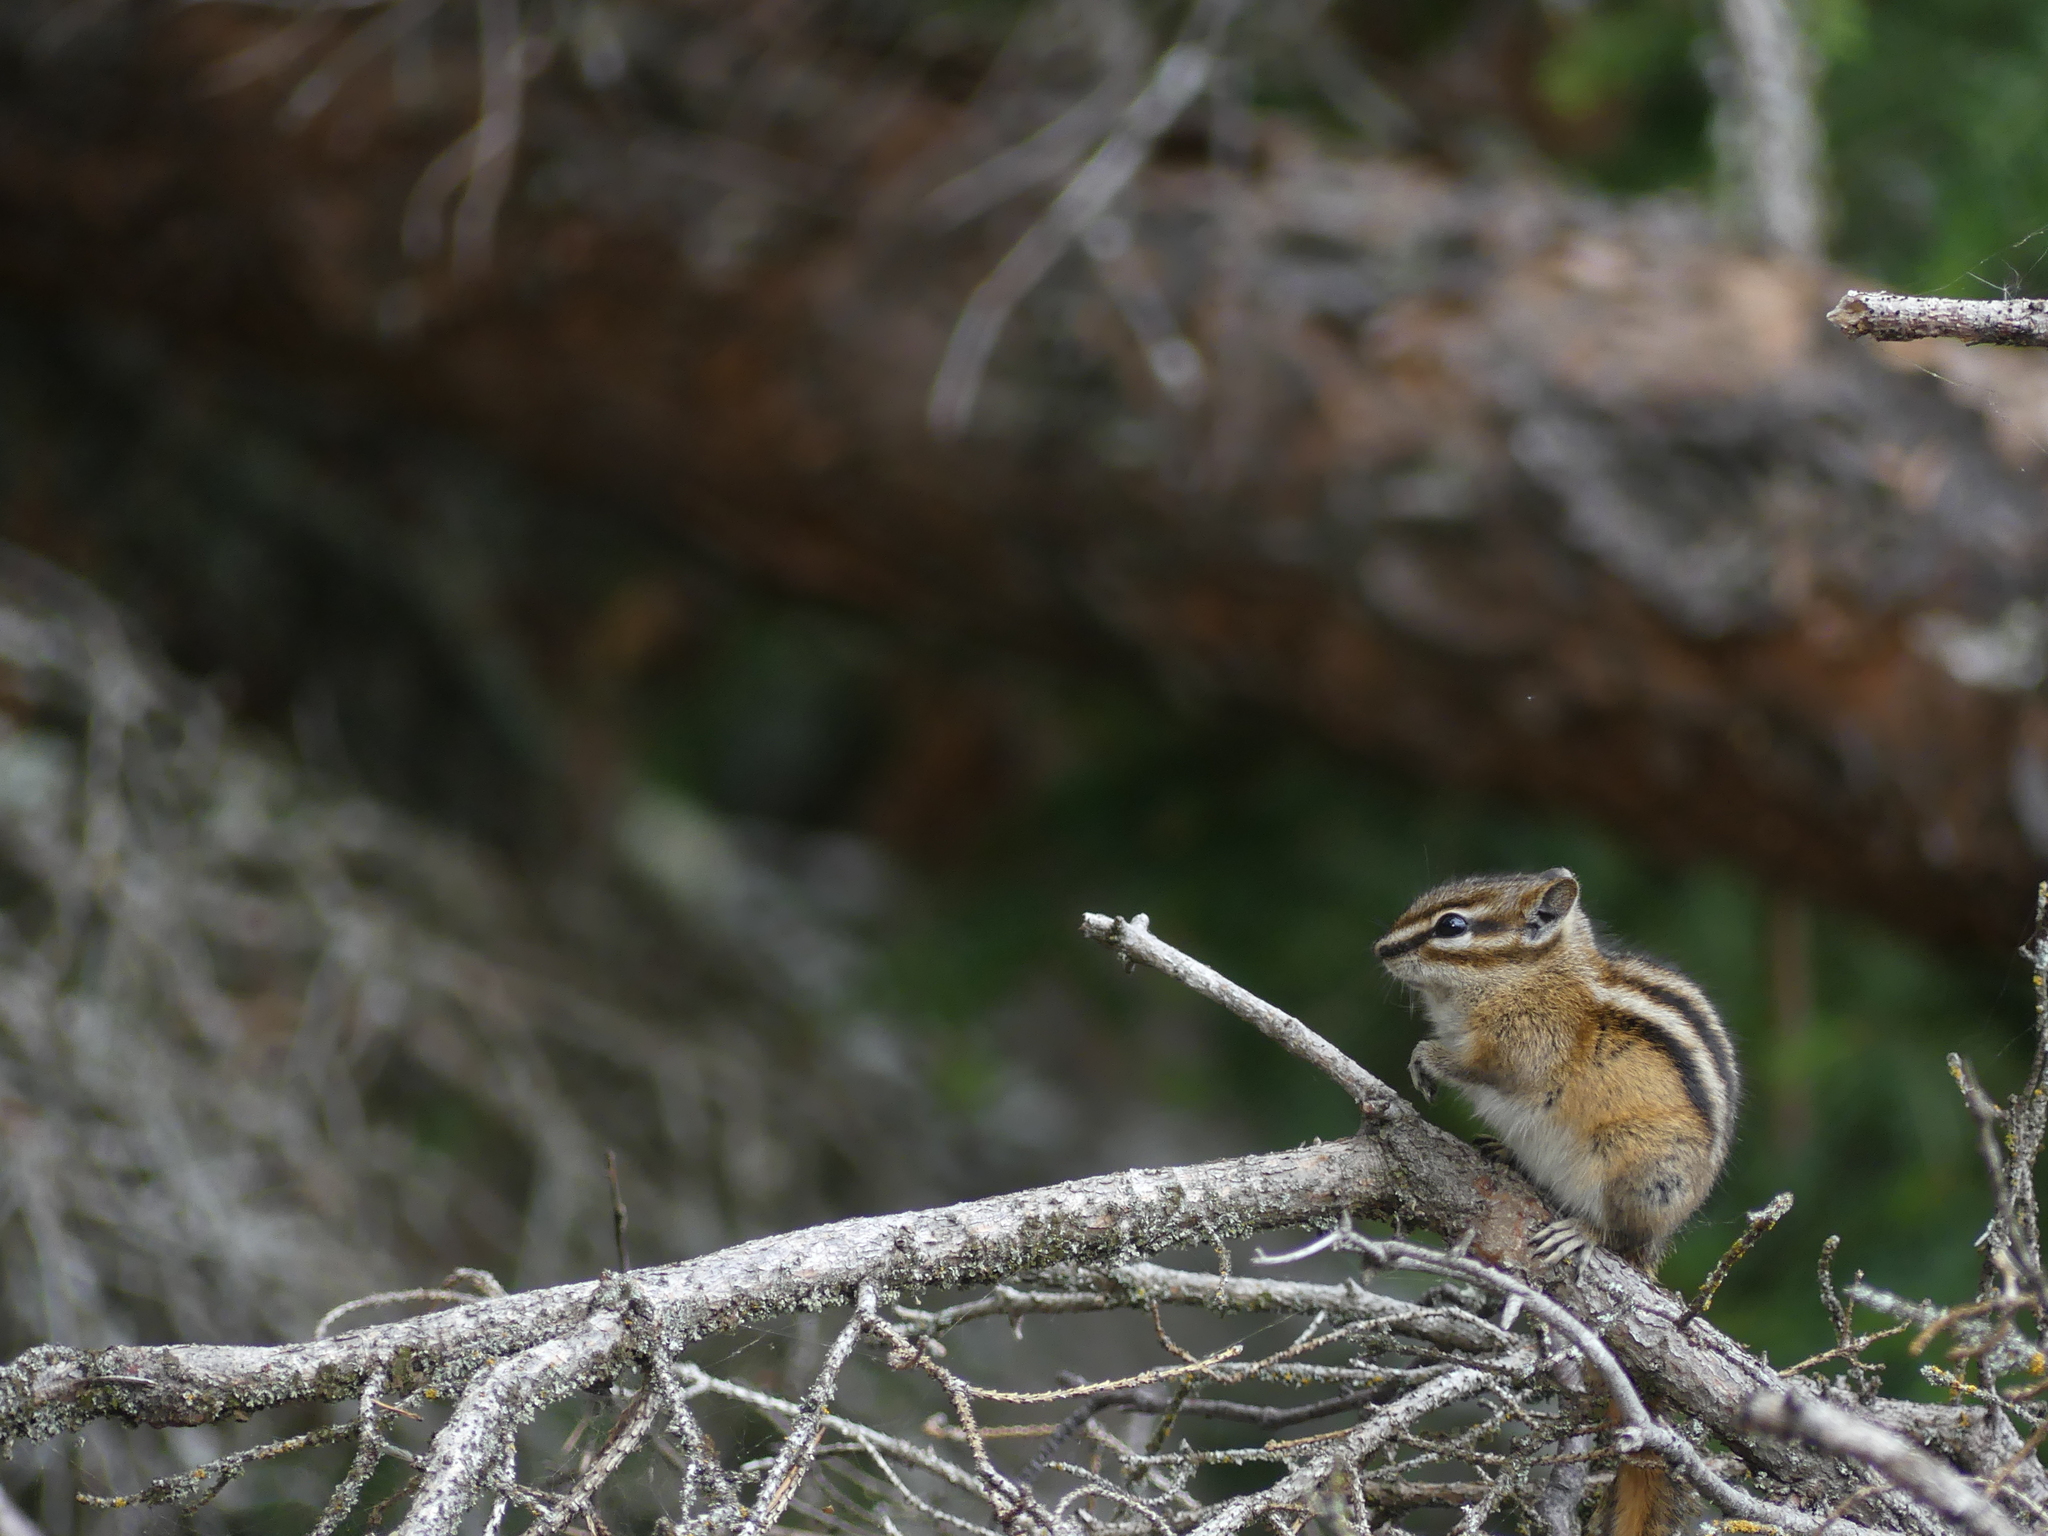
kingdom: Animalia
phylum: Chordata
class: Mammalia
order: Rodentia
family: Sciuridae
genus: Tamias
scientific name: Tamias minimus
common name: Least chipmunk
